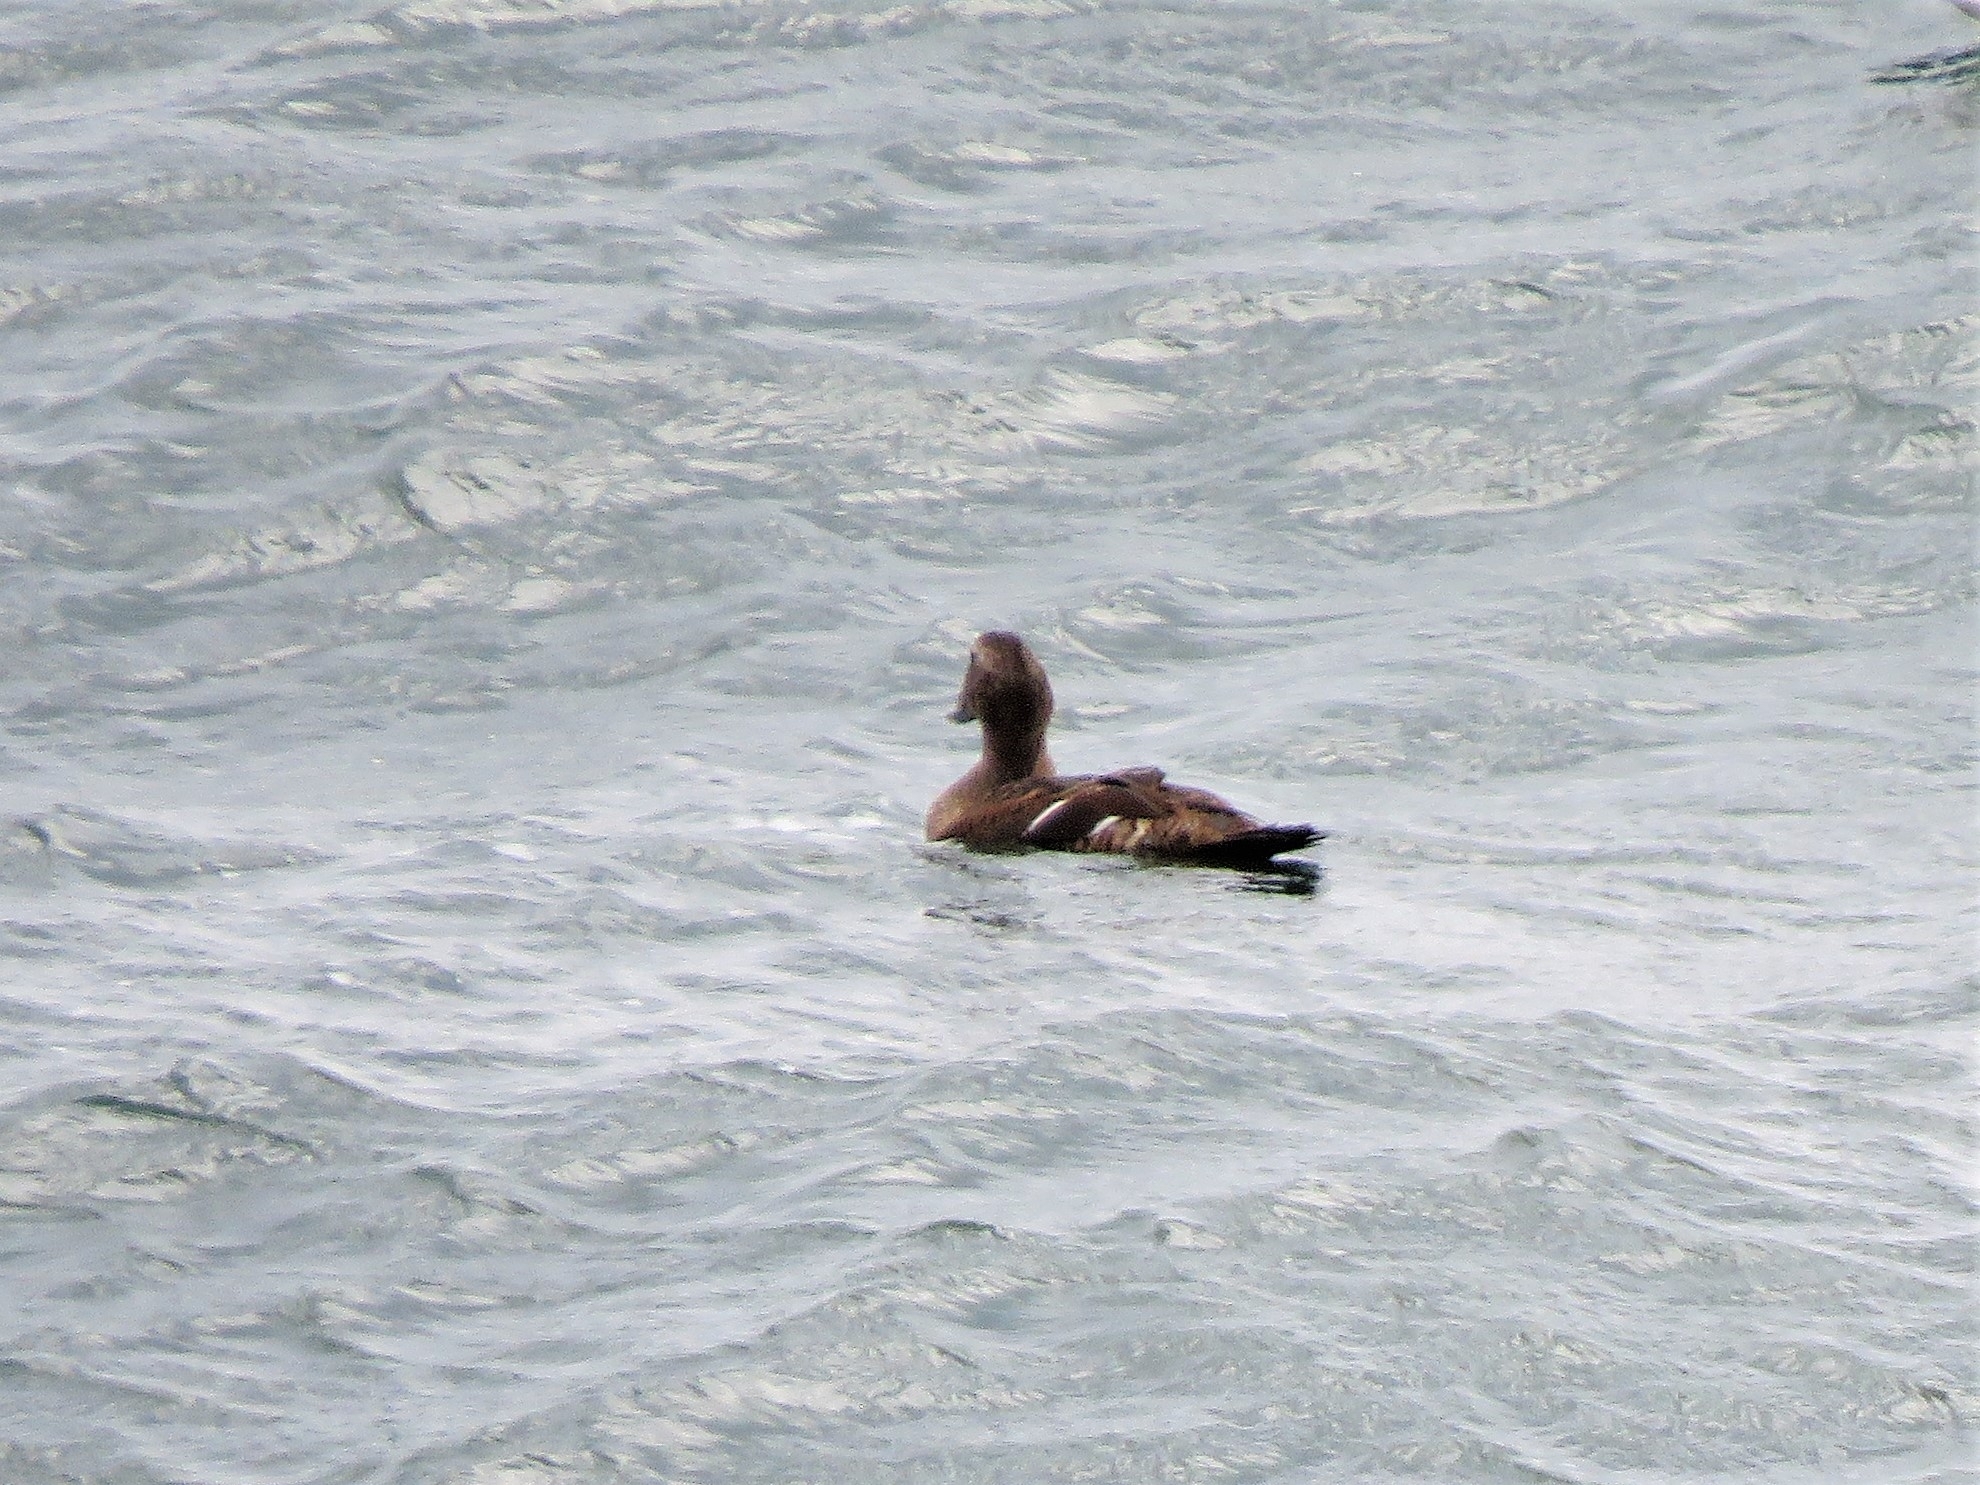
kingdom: Animalia
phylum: Chordata
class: Aves
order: Anseriformes
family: Anatidae
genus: Somateria
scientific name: Somateria mollissima
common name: Common eider
